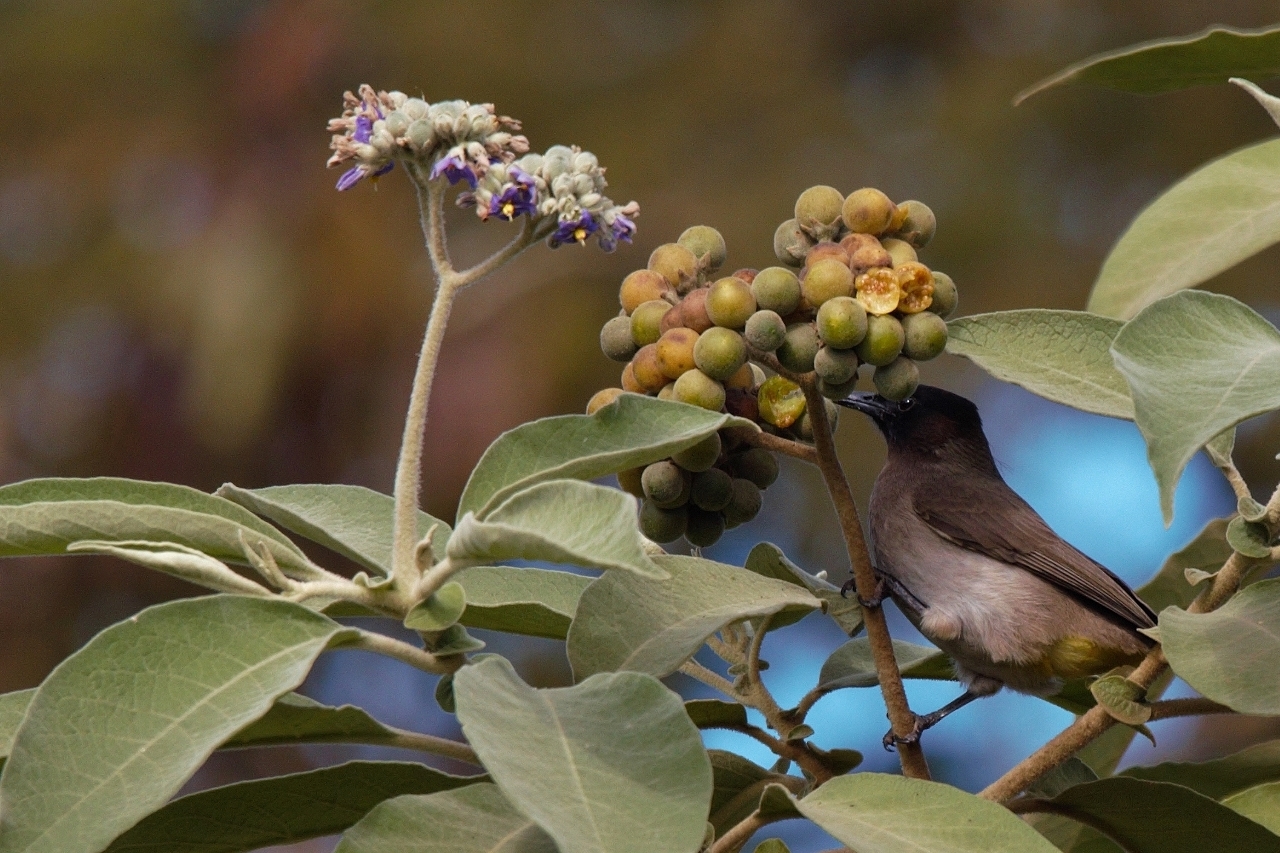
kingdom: Plantae
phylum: Tracheophyta
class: Magnoliopsida
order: Solanales
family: Solanaceae
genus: Solanum
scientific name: Solanum mauritianum
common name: Earleaf nightshade
